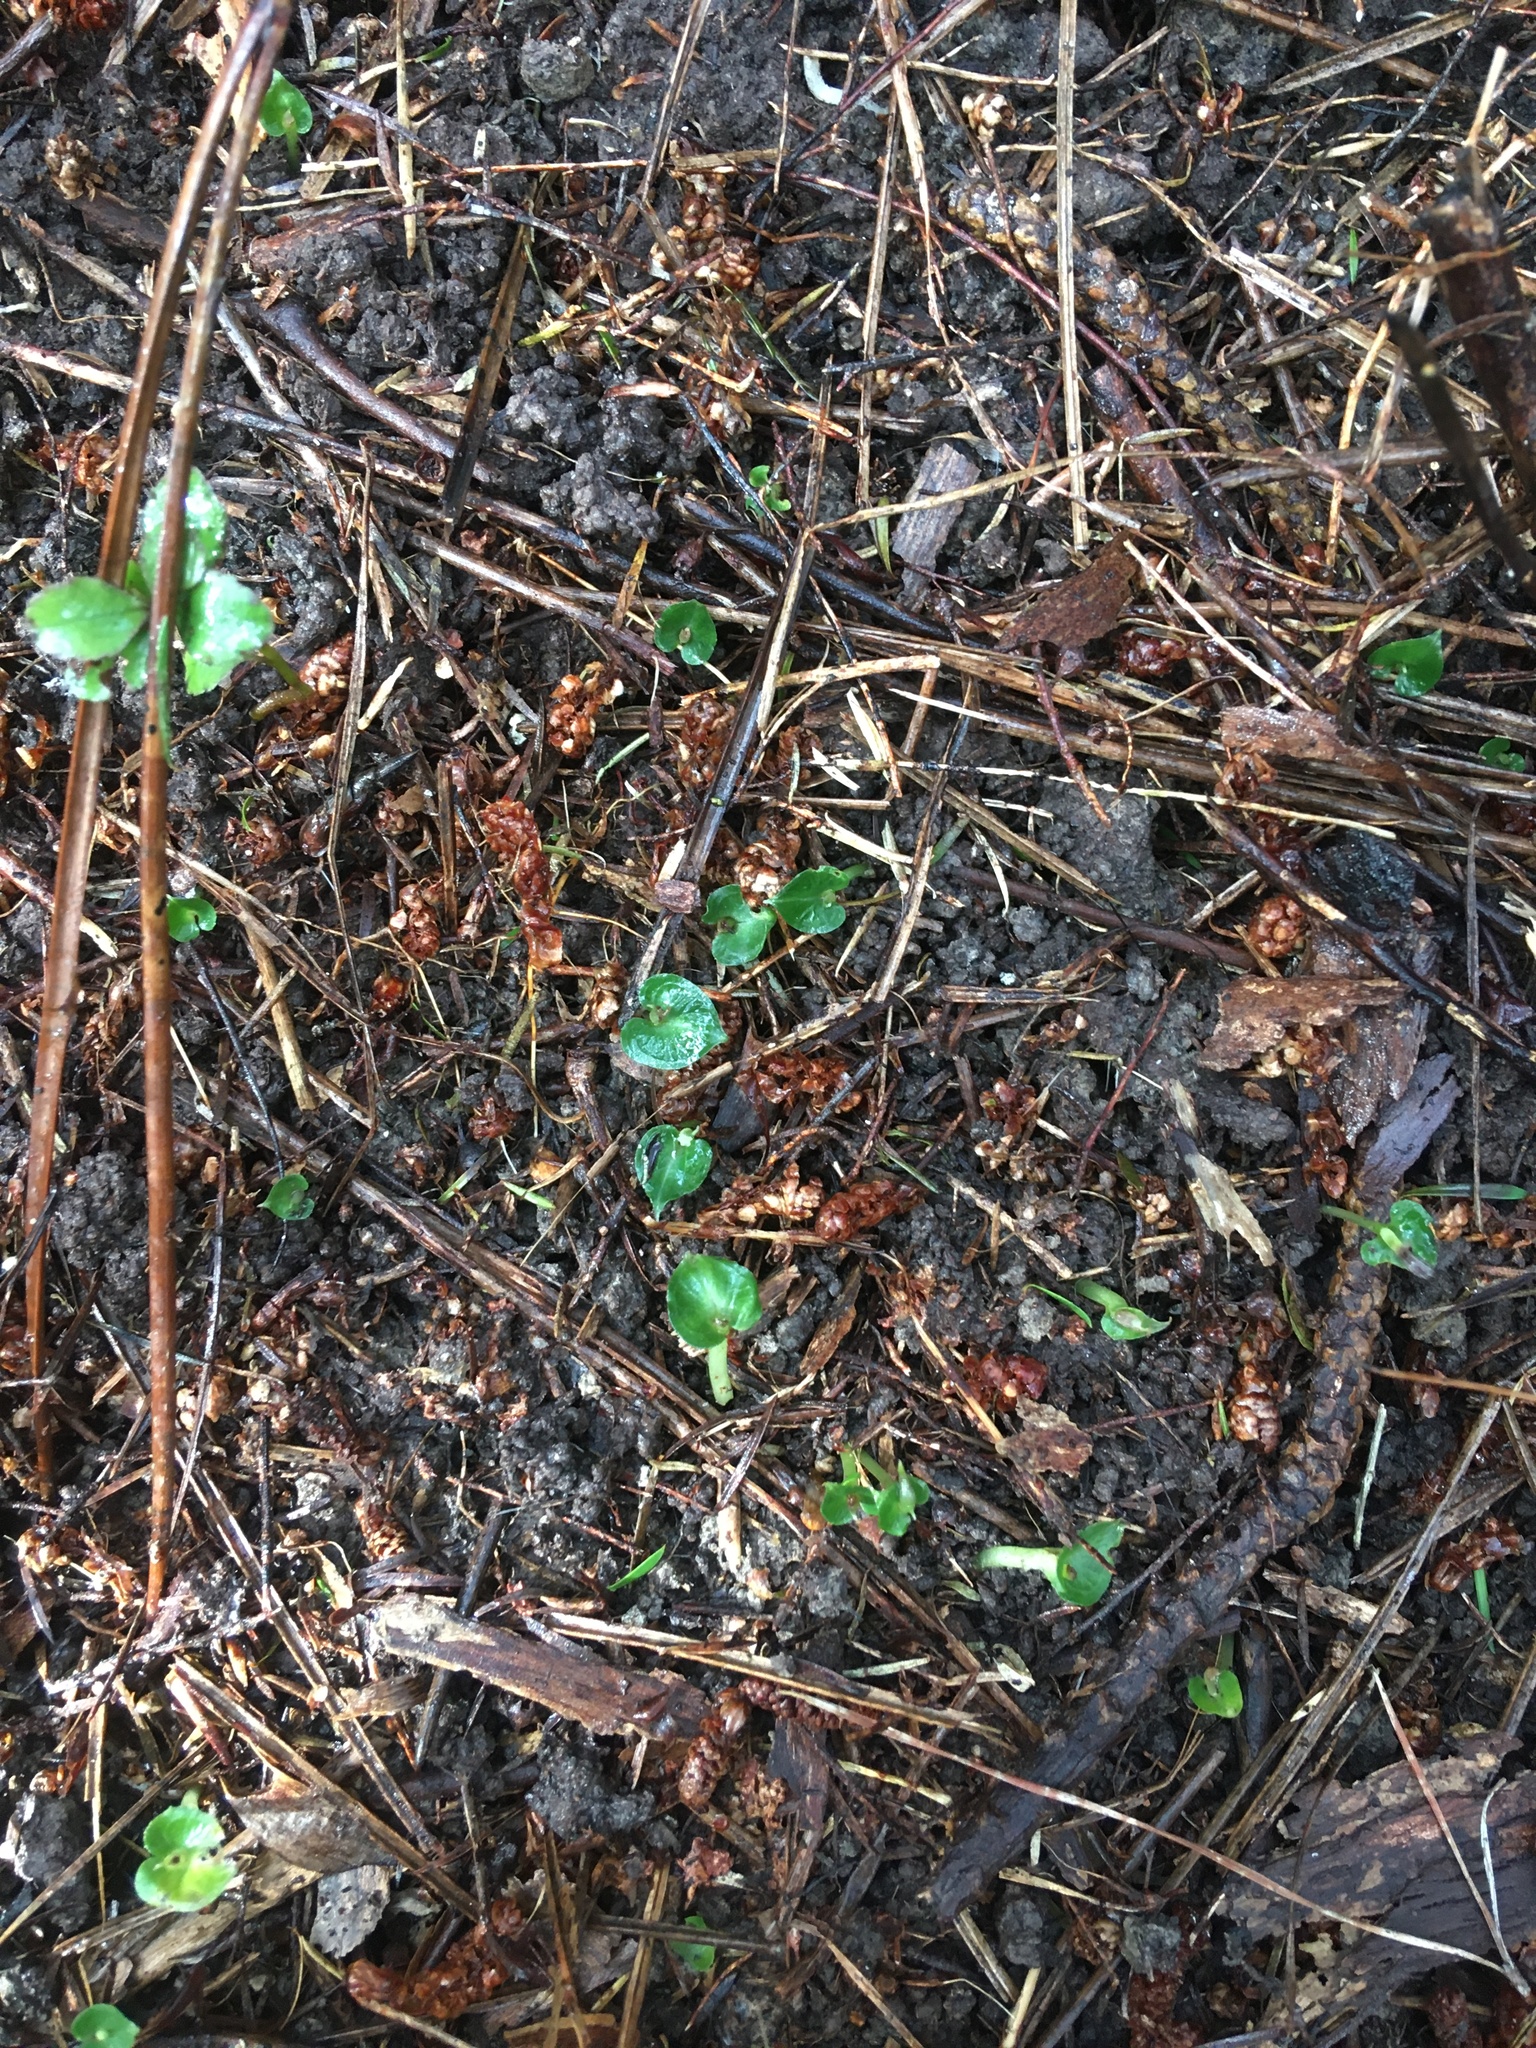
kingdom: Plantae
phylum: Tracheophyta
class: Liliopsida
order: Asparagales
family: Orchidaceae
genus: Corybas
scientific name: Corybas cheesemanii
